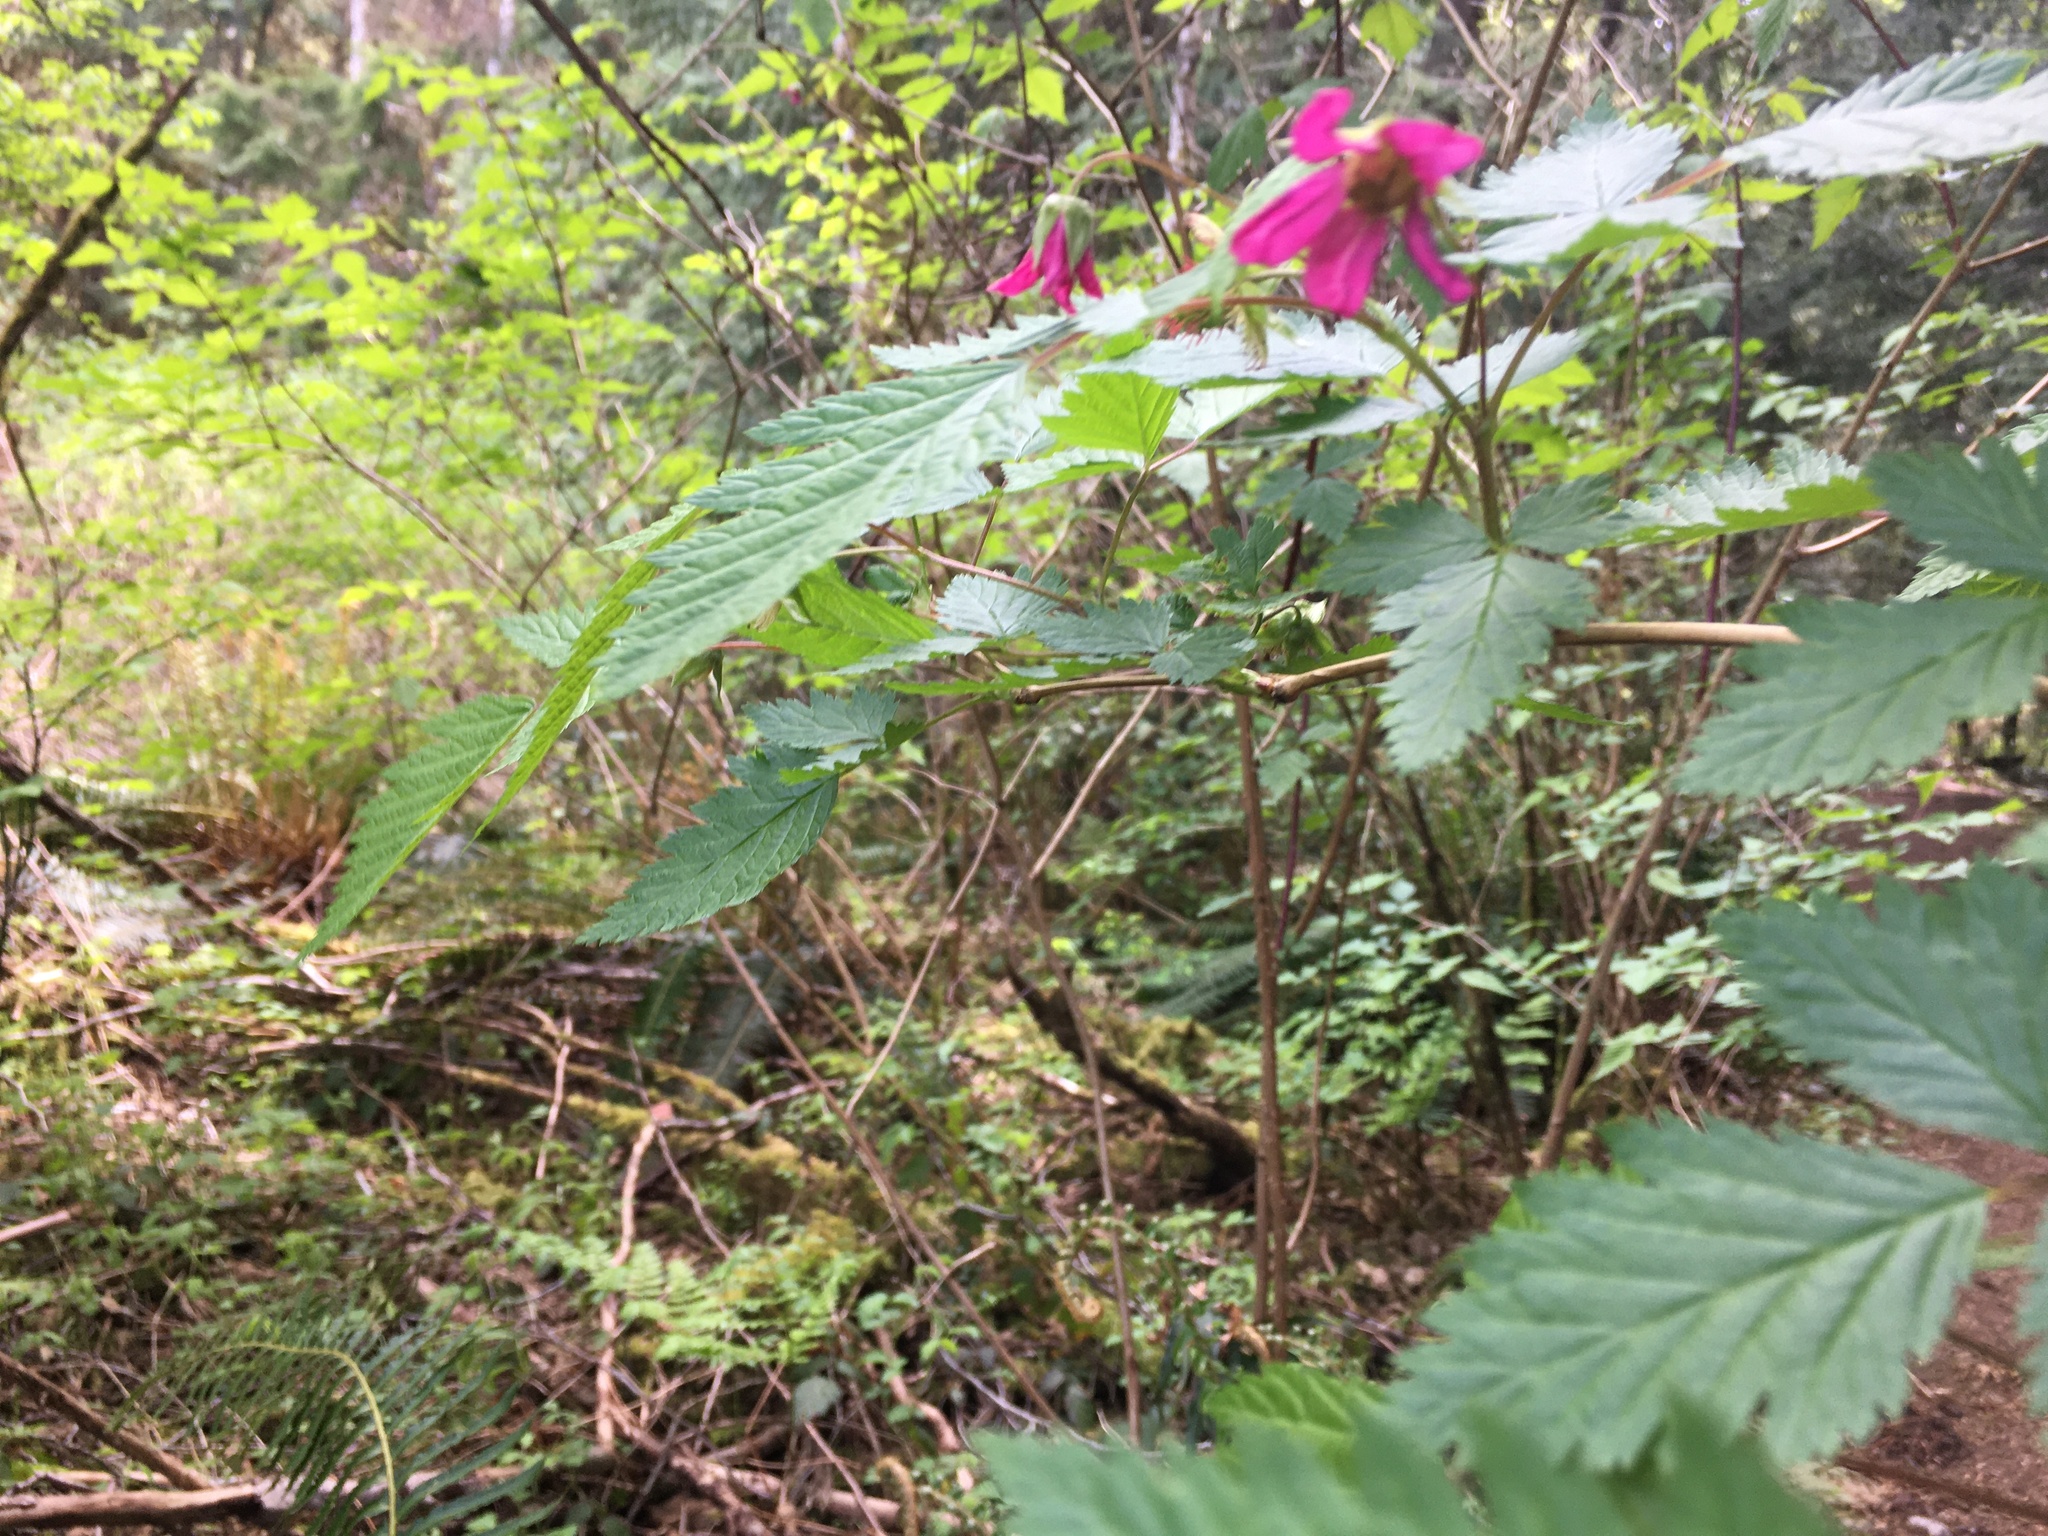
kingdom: Plantae
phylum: Tracheophyta
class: Magnoliopsida
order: Rosales
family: Rosaceae
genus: Rubus
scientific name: Rubus spectabilis
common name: Salmonberry
